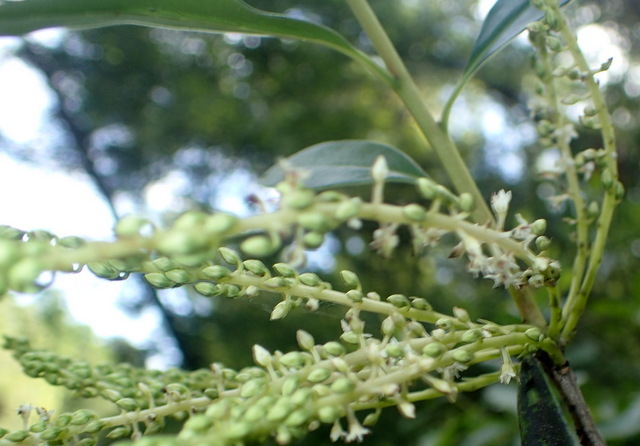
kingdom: Plantae
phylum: Tracheophyta
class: Magnoliopsida
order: Ericales
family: Cyrillaceae
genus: Cyrilla
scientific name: Cyrilla racemiflora
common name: Black titi
